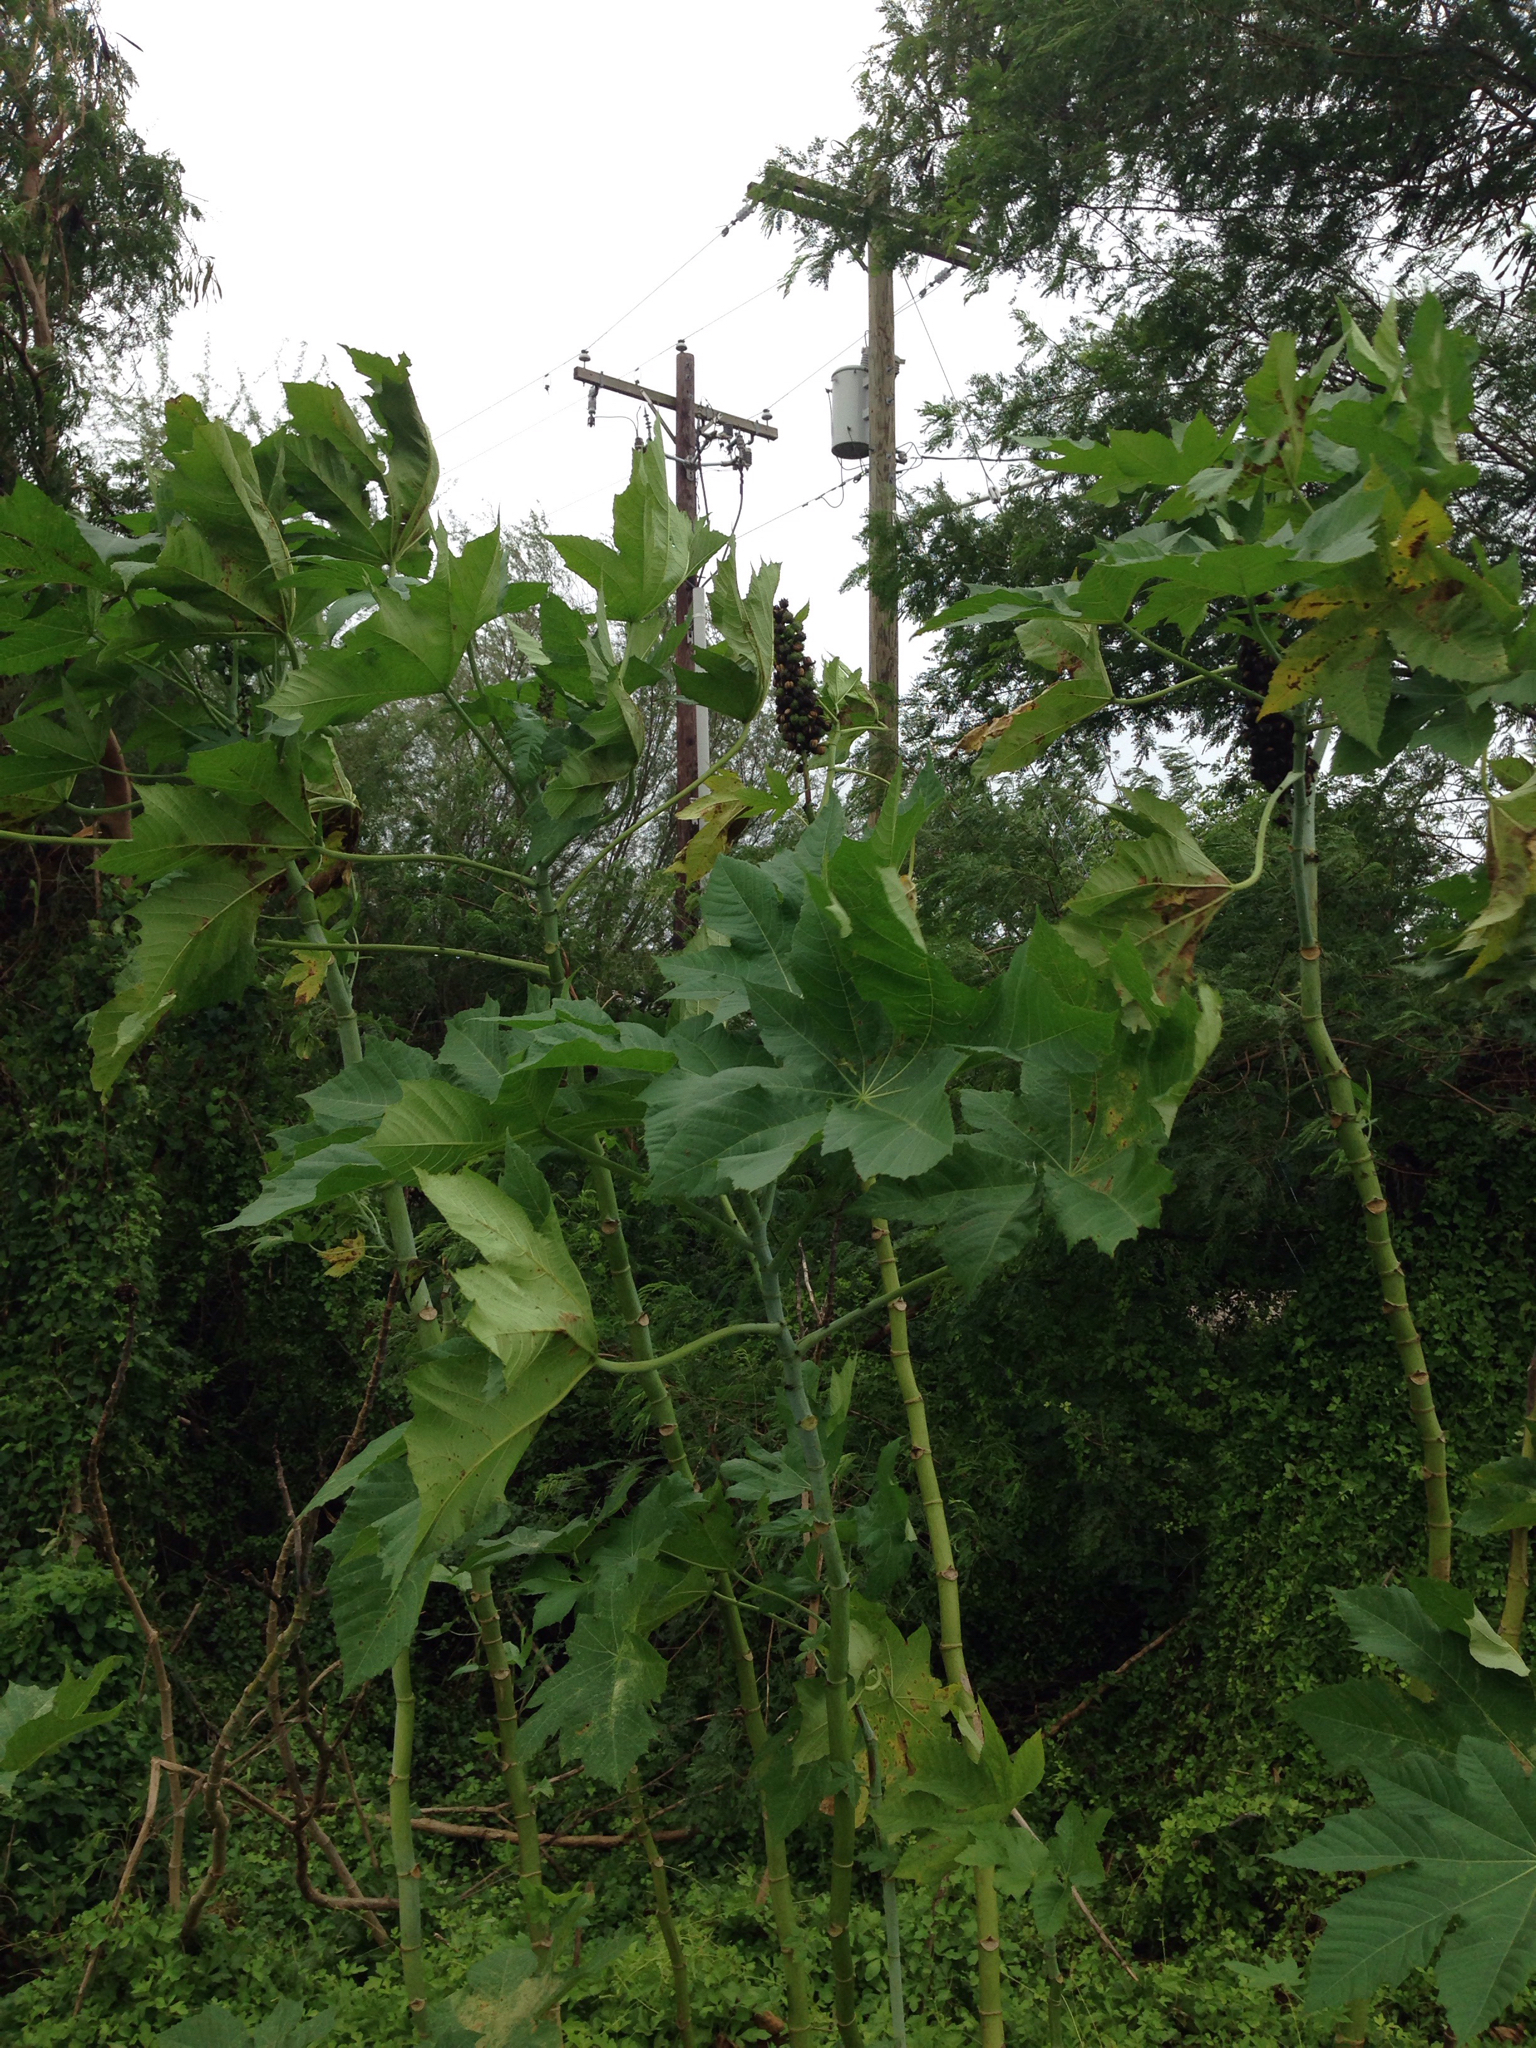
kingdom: Plantae
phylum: Tracheophyta
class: Magnoliopsida
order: Malpighiales
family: Euphorbiaceae
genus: Ricinus
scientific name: Ricinus communis
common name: Castor-oil-plant
